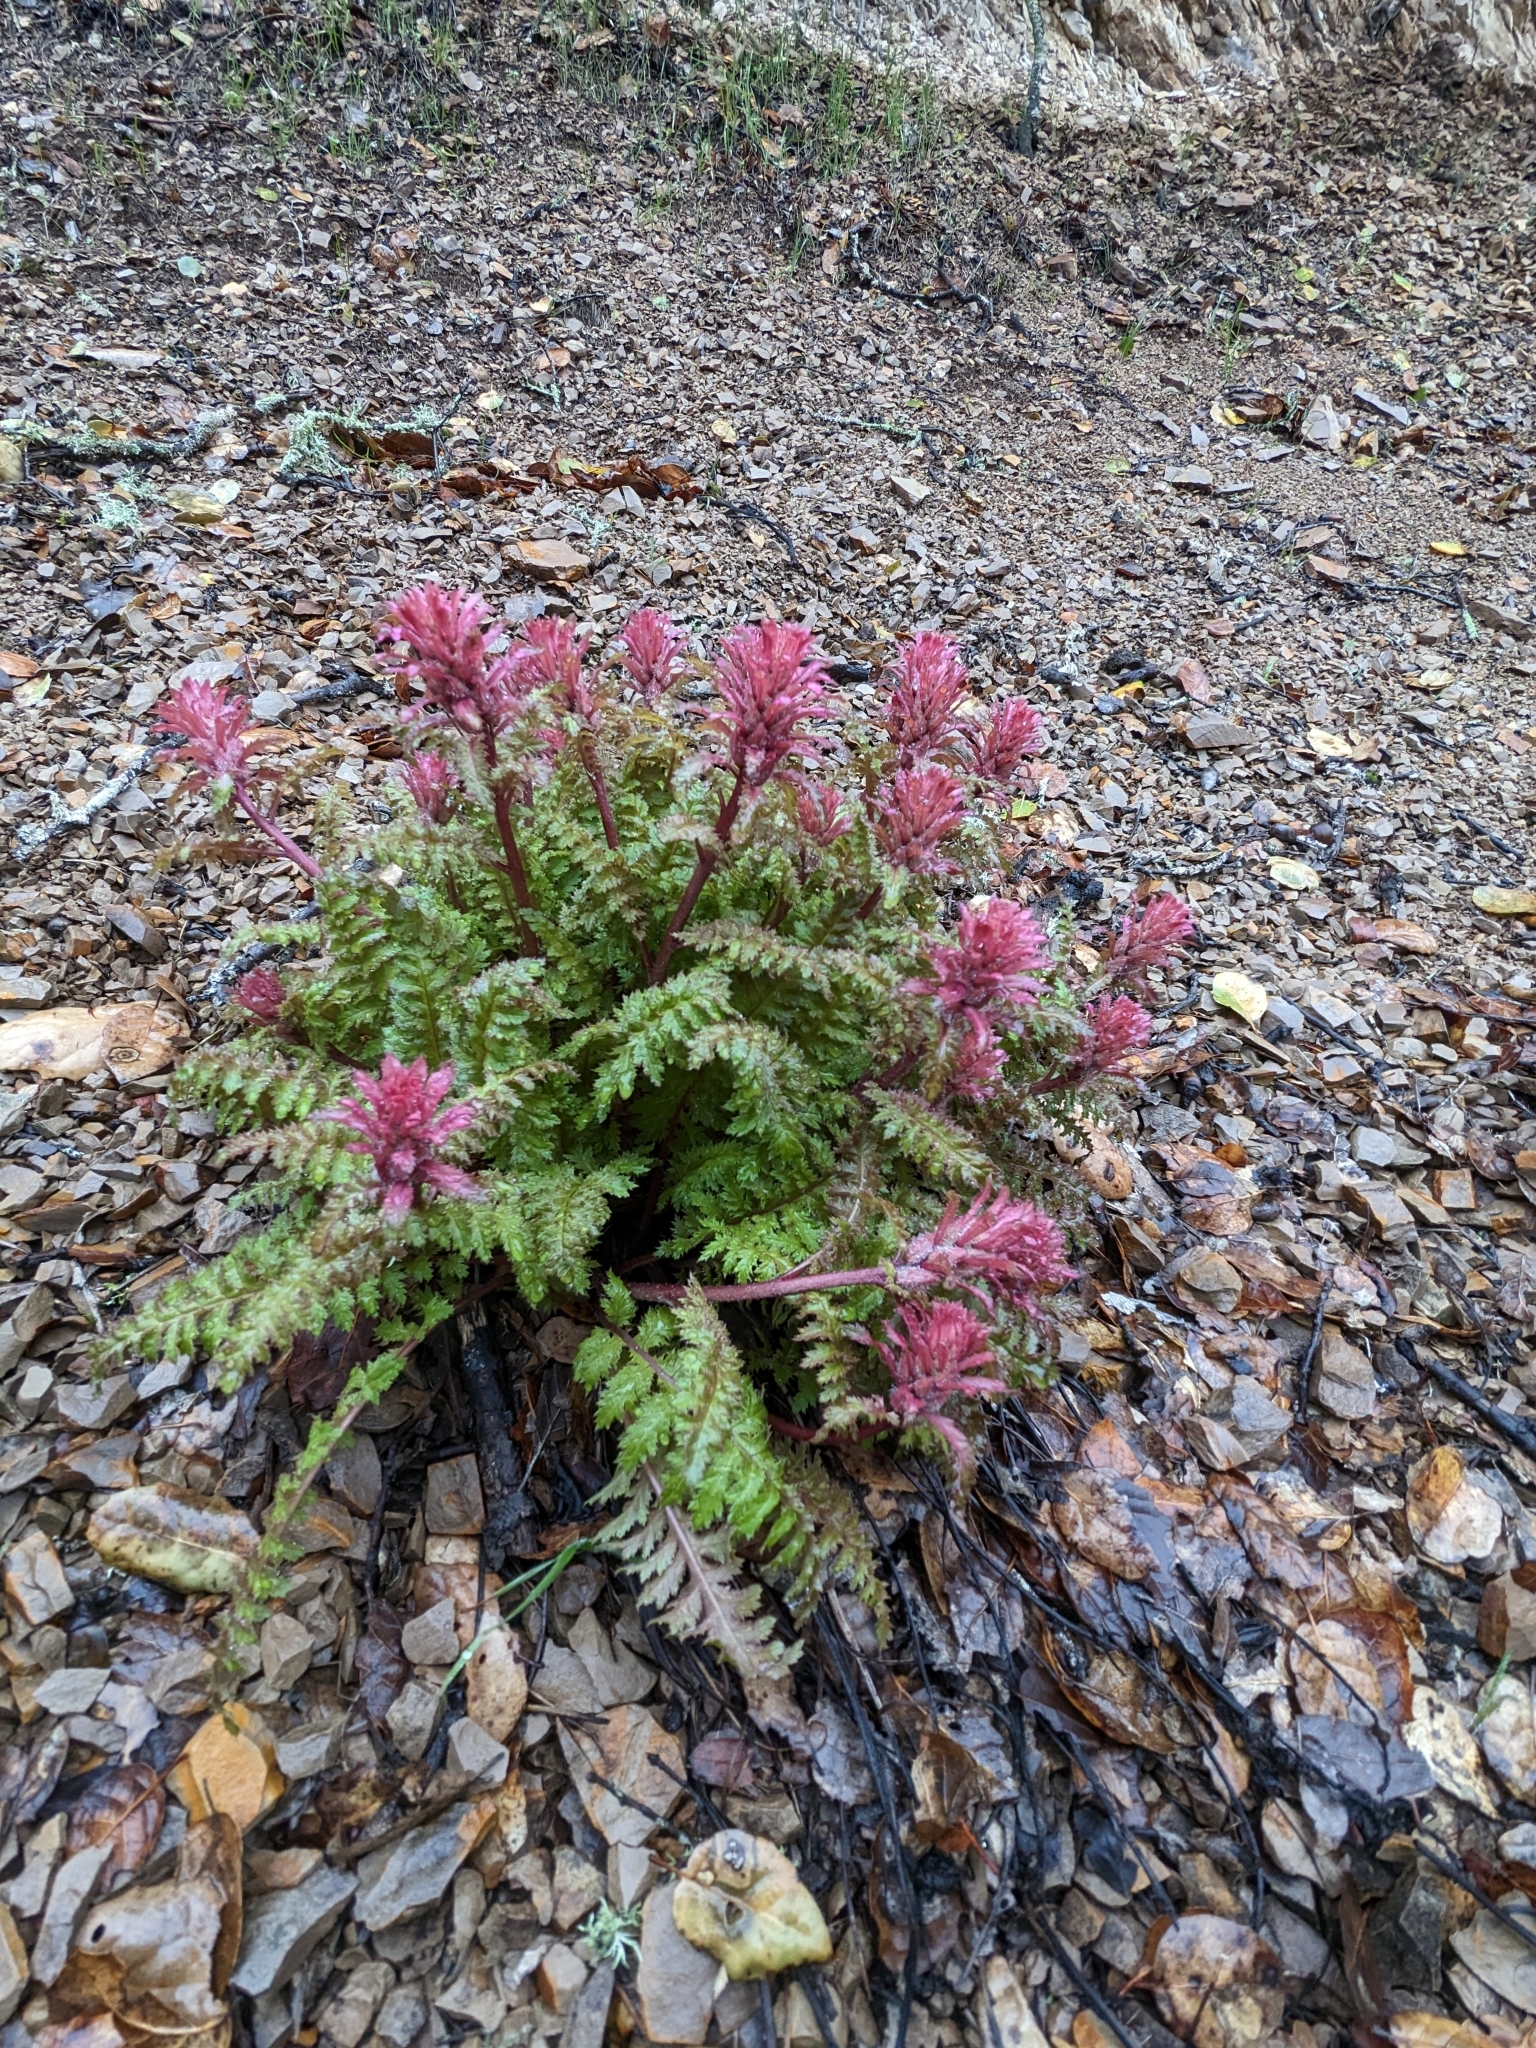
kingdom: Plantae
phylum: Tracheophyta
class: Magnoliopsida
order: Lamiales
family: Orobanchaceae
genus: Pedicularis
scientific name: Pedicularis densiflora
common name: Indian warrior
